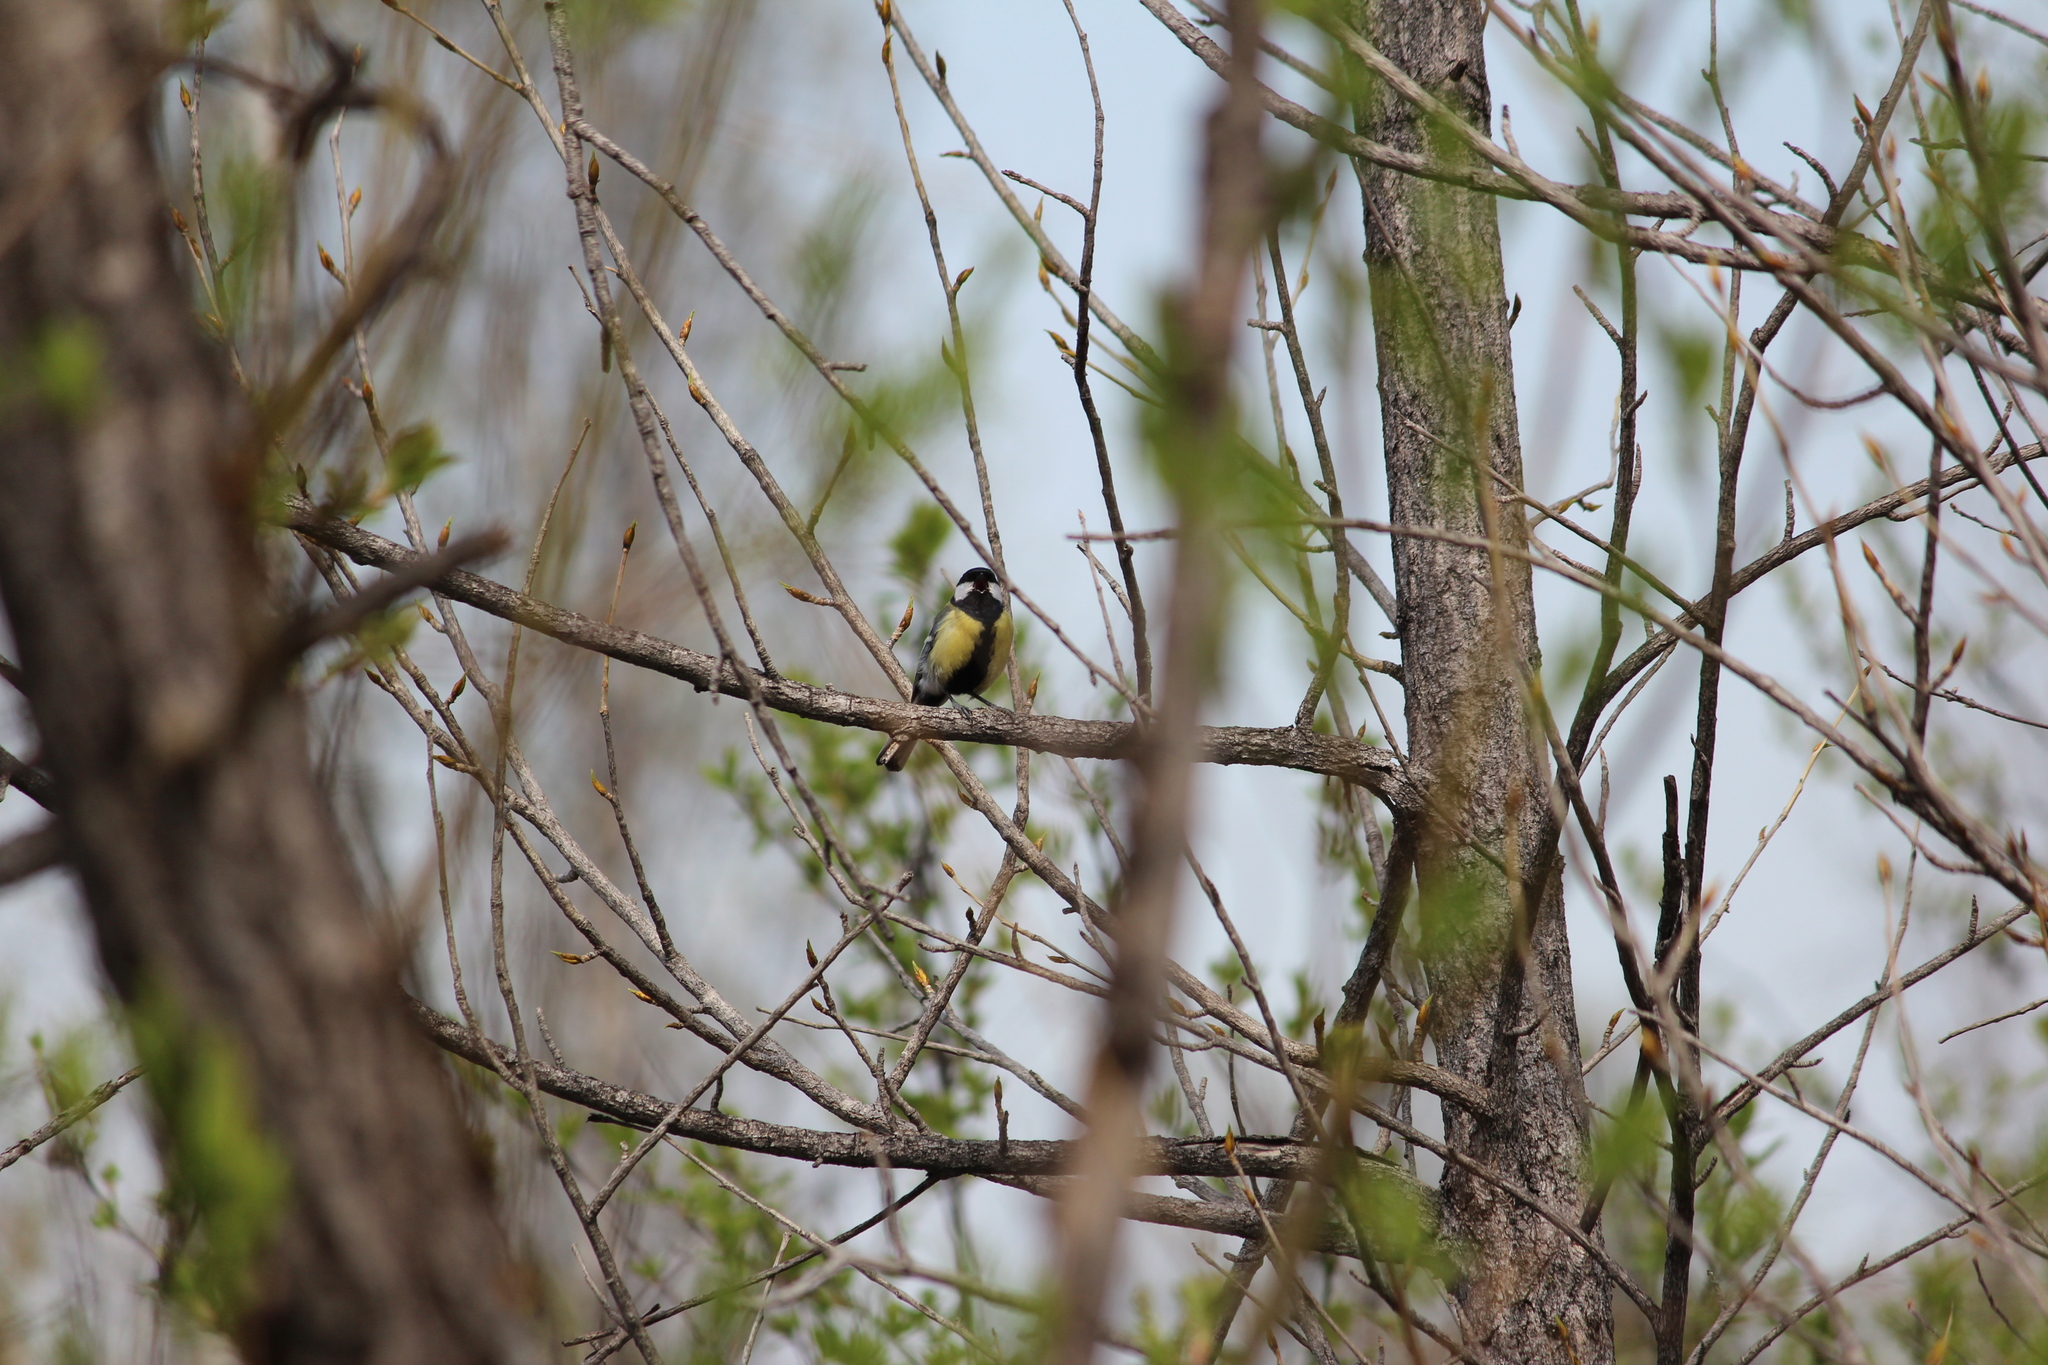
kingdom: Animalia
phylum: Chordata
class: Aves
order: Passeriformes
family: Paridae
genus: Parus
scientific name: Parus major
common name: Great tit
